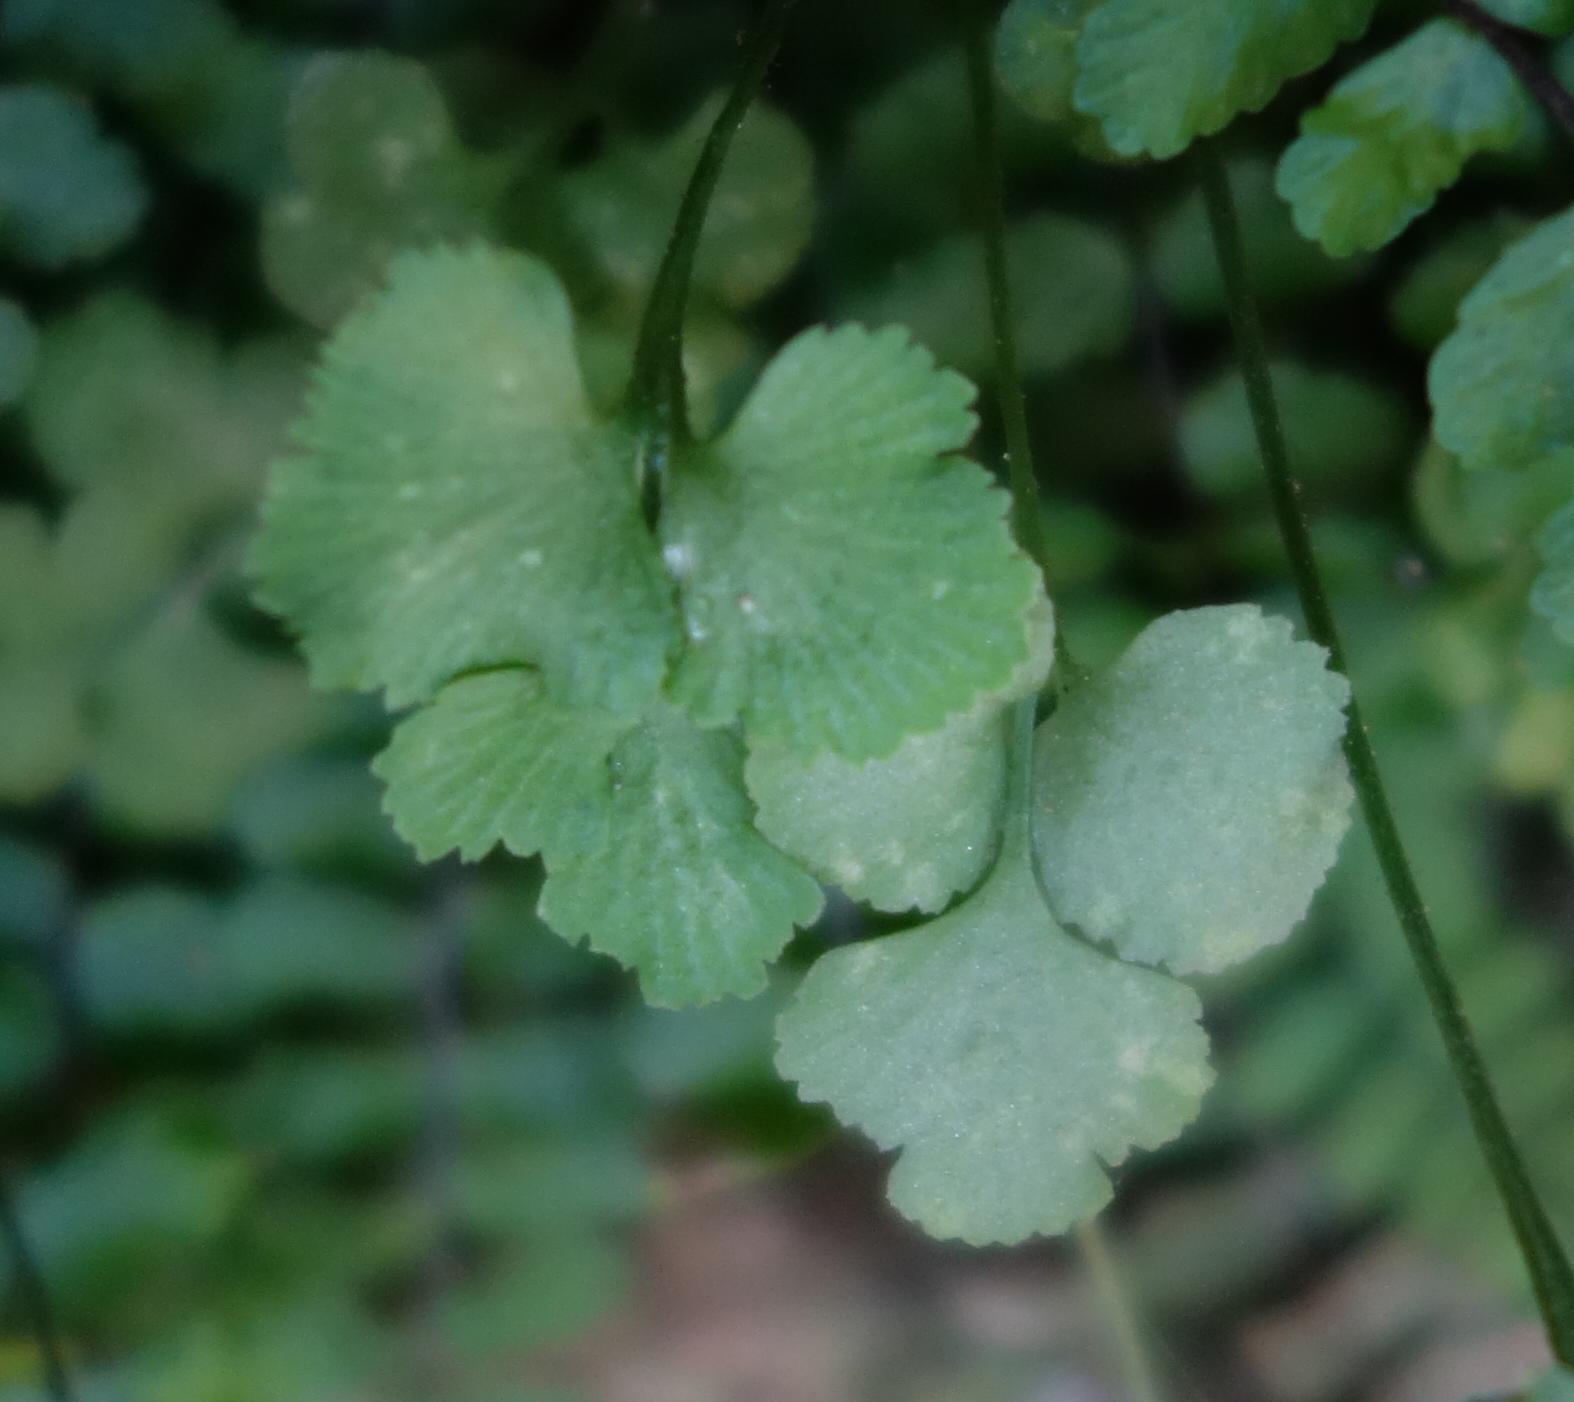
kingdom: Plantae
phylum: Tracheophyta
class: Polypodiopsida
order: Polypodiales
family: Aspleniaceae
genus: Asplenium
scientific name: Asplenium ruta-muraria
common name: Wall-rue
